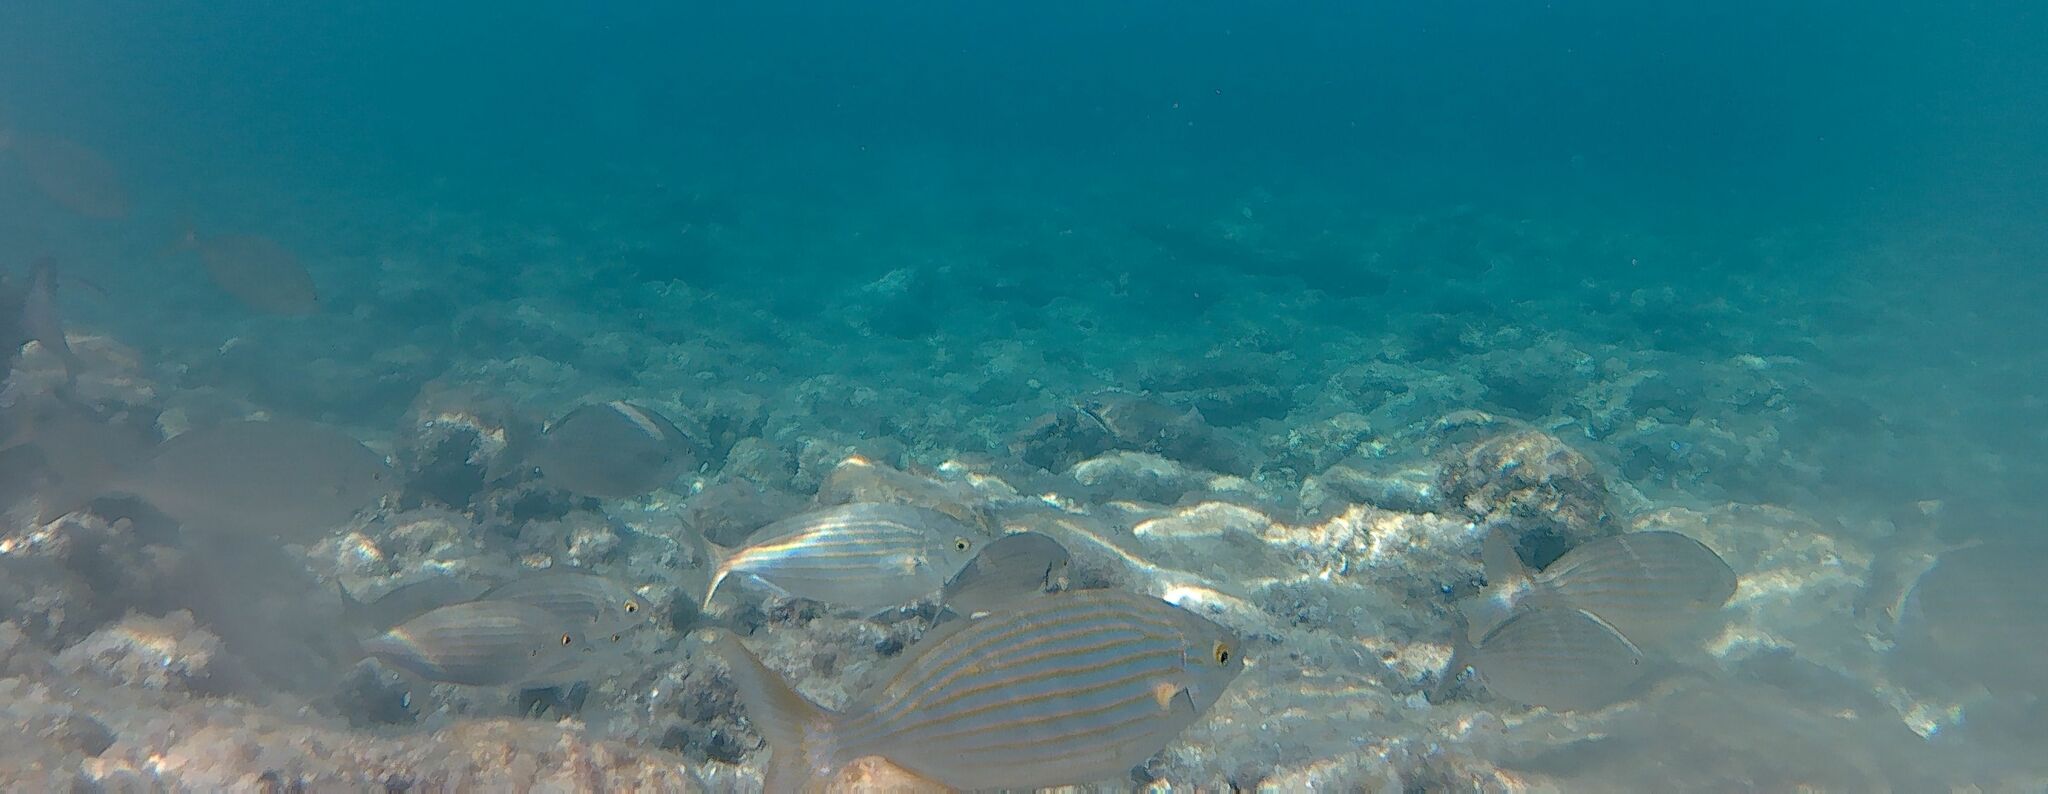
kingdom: Animalia
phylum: Chordata
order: Perciformes
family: Sparidae
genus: Sarpa
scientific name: Sarpa salpa
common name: Salema
